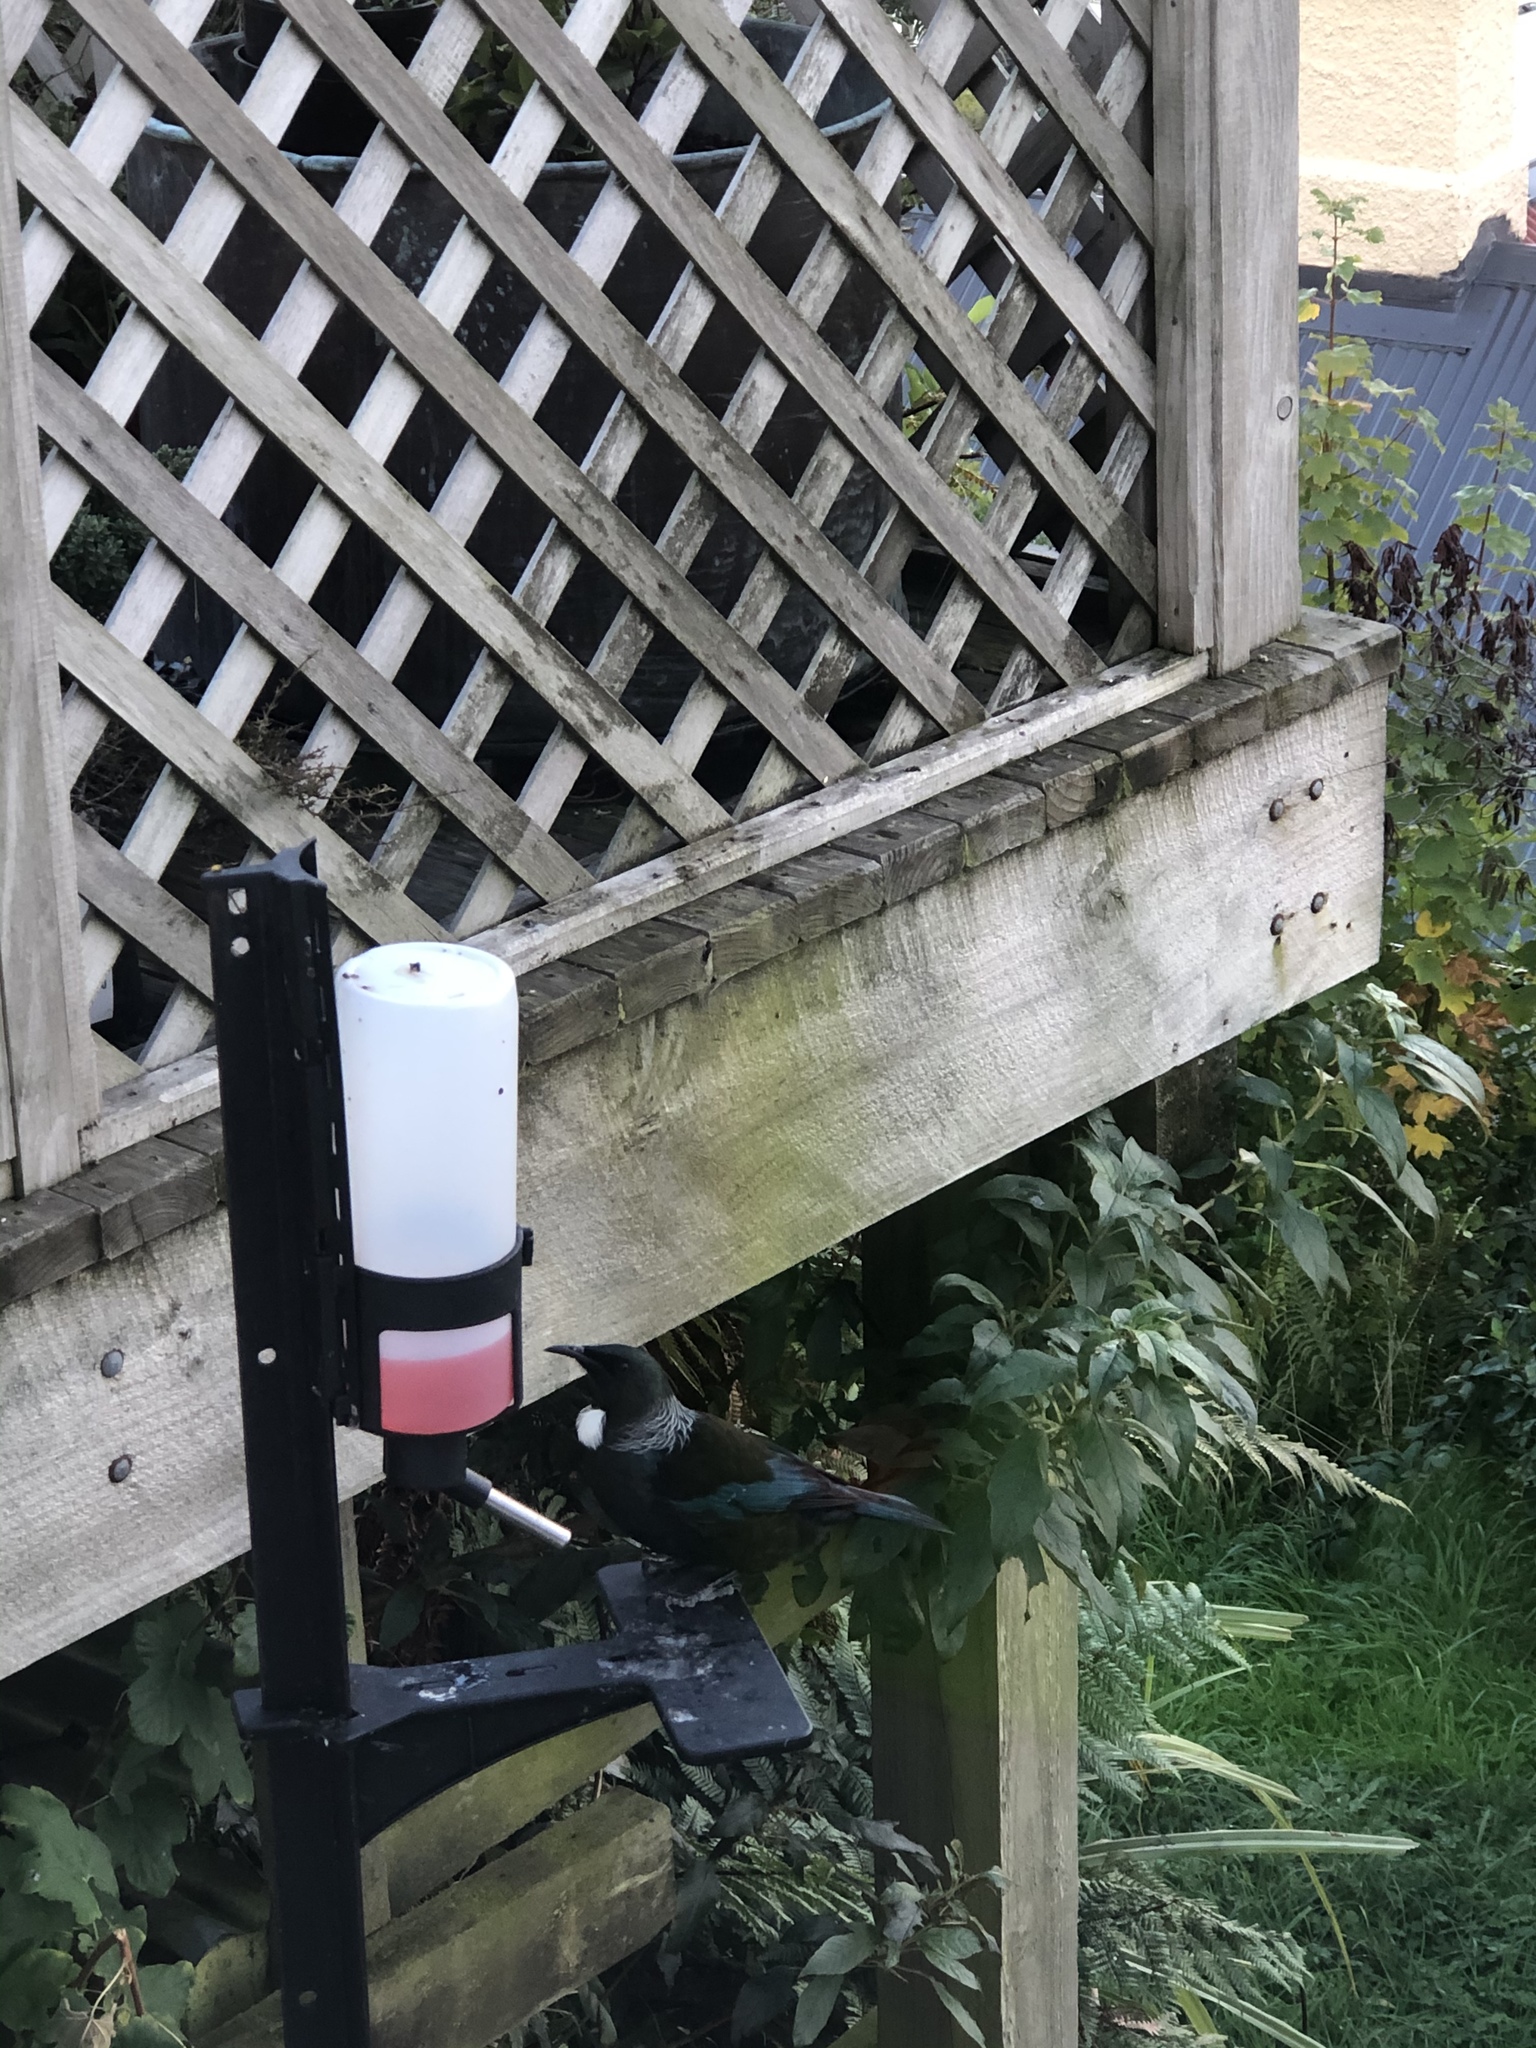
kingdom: Animalia
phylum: Chordata
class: Aves
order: Passeriformes
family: Meliphagidae
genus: Prosthemadera
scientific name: Prosthemadera novaeseelandiae
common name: Tui
